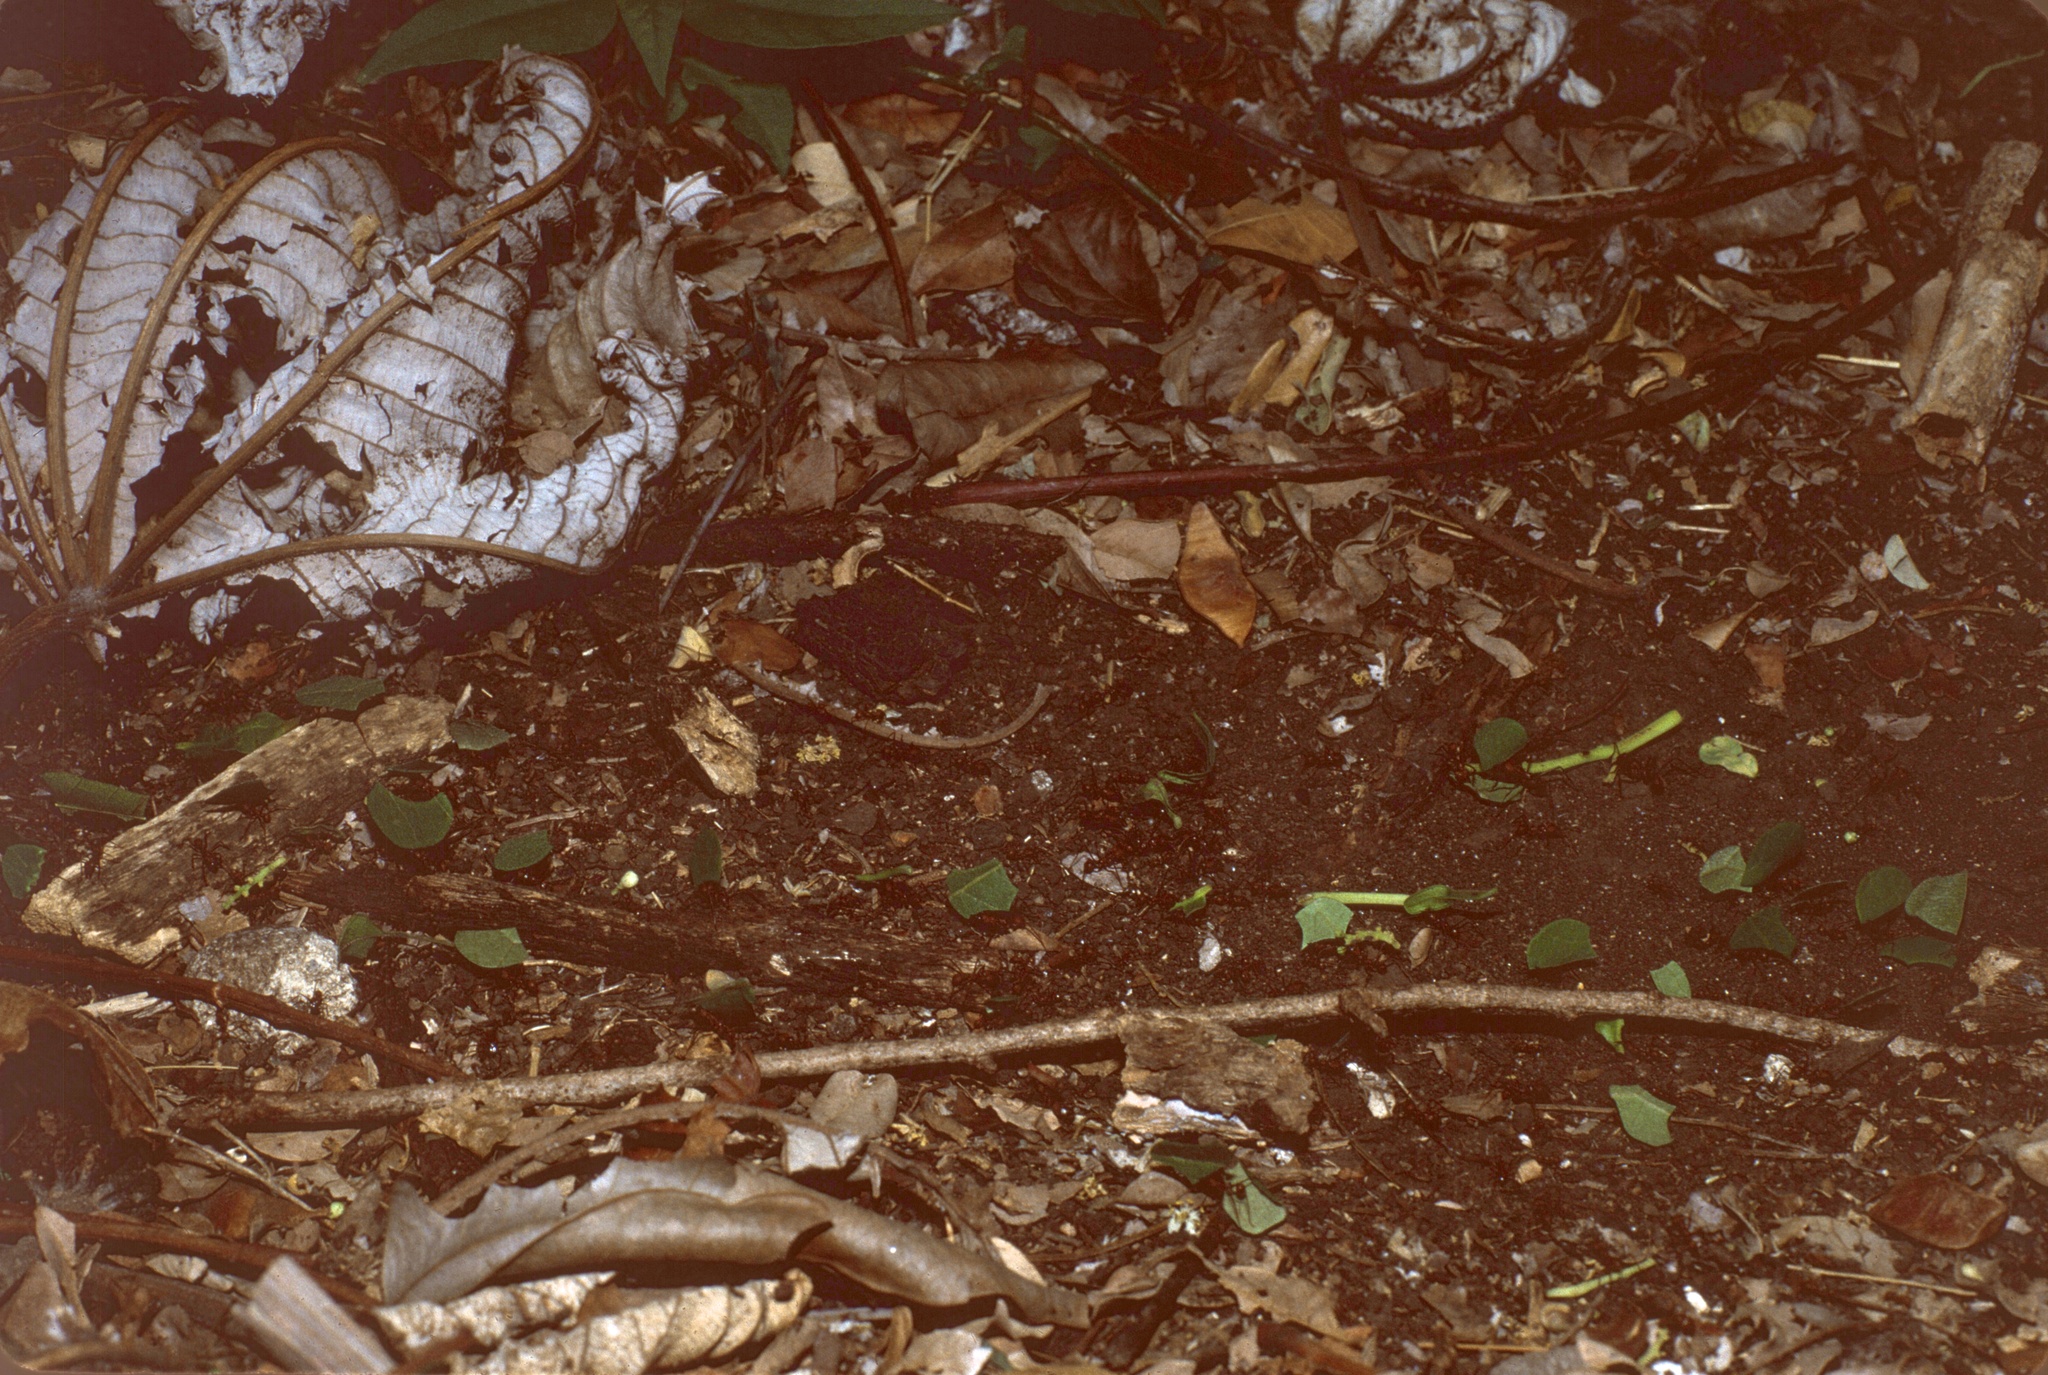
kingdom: Animalia
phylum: Arthropoda
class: Insecta
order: Hymenoptera
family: Formicidae
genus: Atta
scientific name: Atta cephalotes
